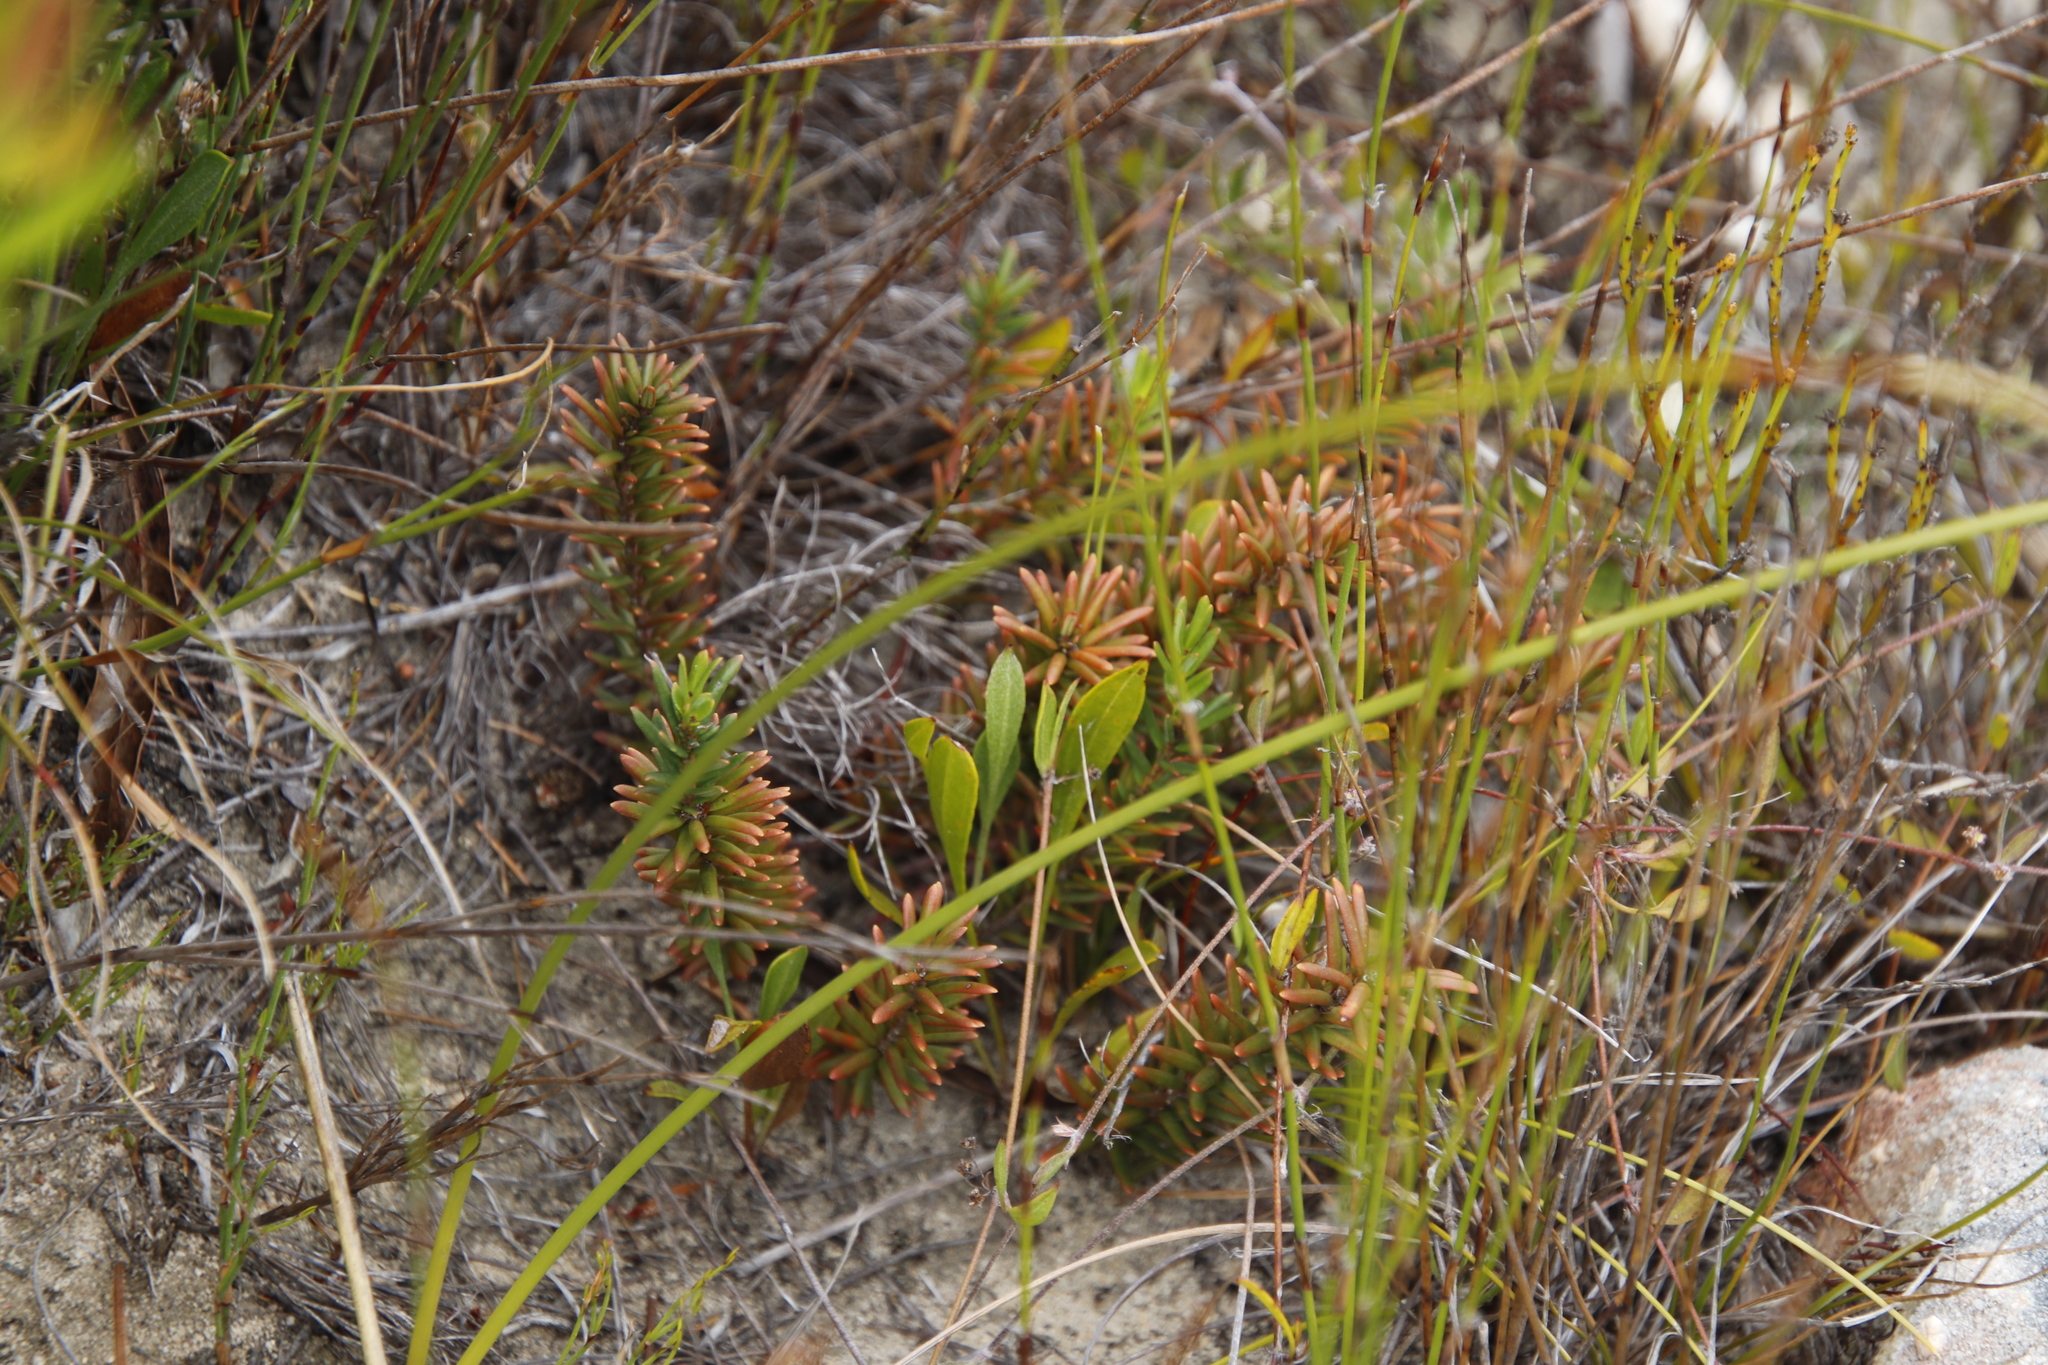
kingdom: Plantae
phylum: Tracheophyta
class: Magnoliopsida
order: Malpighiales
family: Peraceae
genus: Clutia
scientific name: Clutia polygonoides
